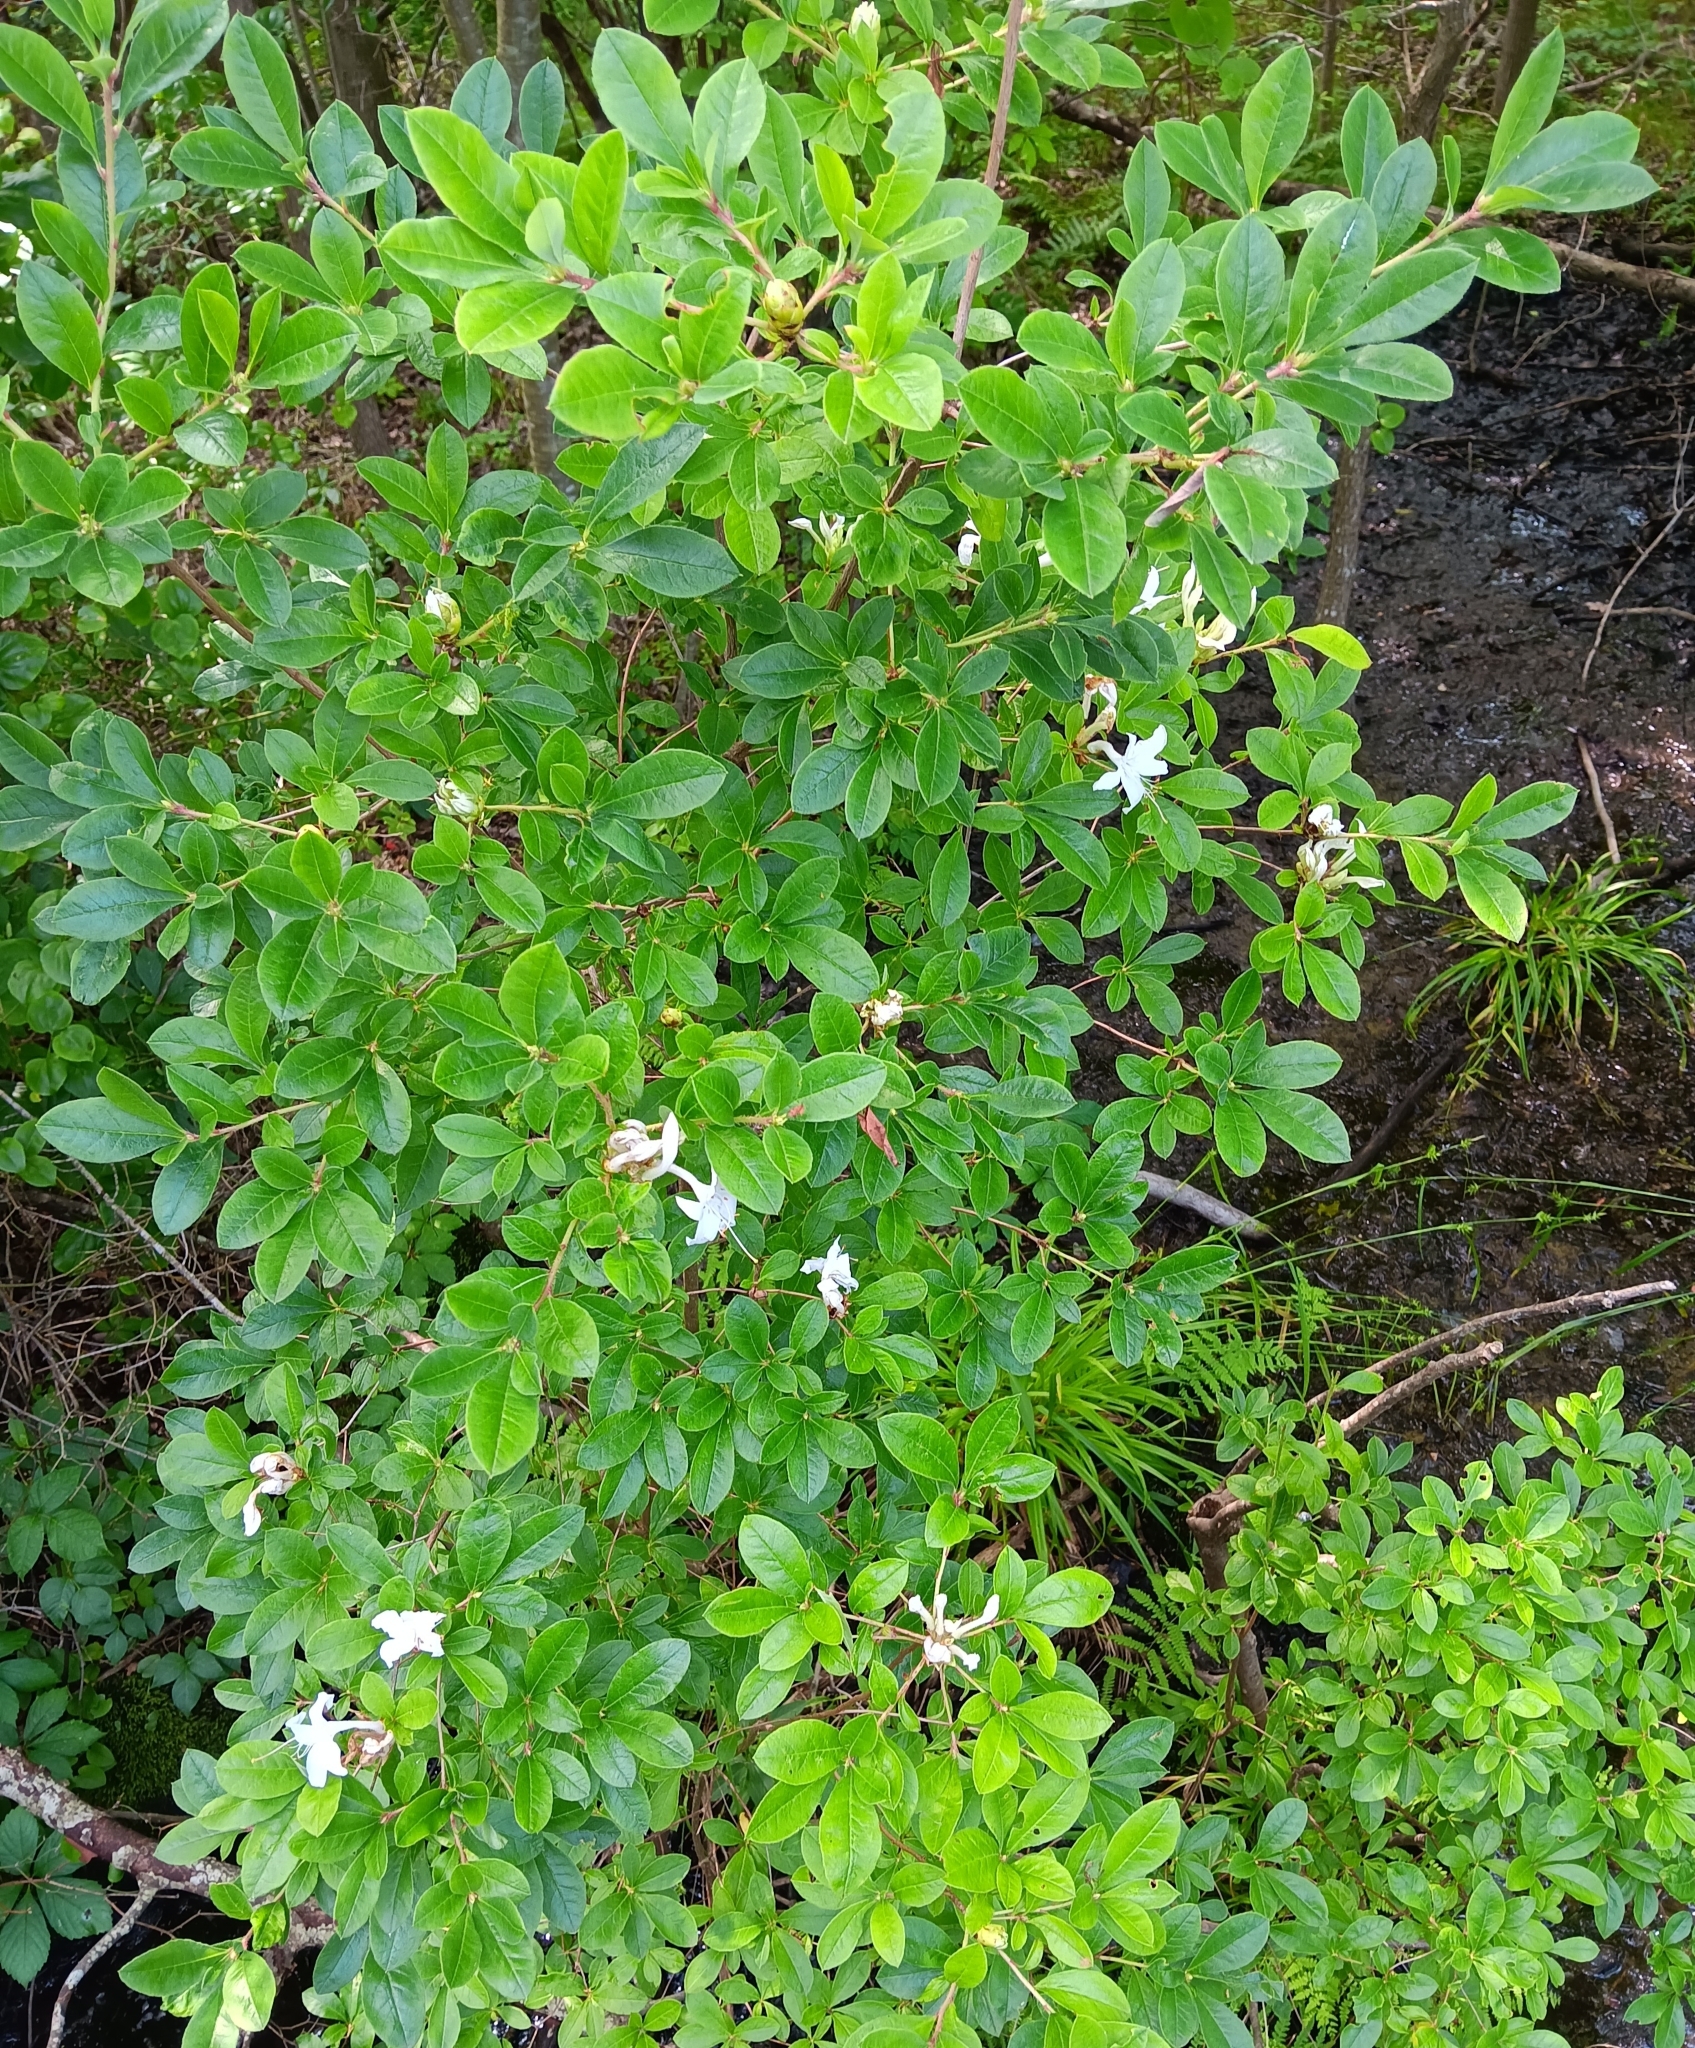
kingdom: Plantae
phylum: Tracheophyta
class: Magnoliopsida
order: Ericales
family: Ericaceae
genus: Rhododendron
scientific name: Rhododendron viscosum
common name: Clammy azalea
